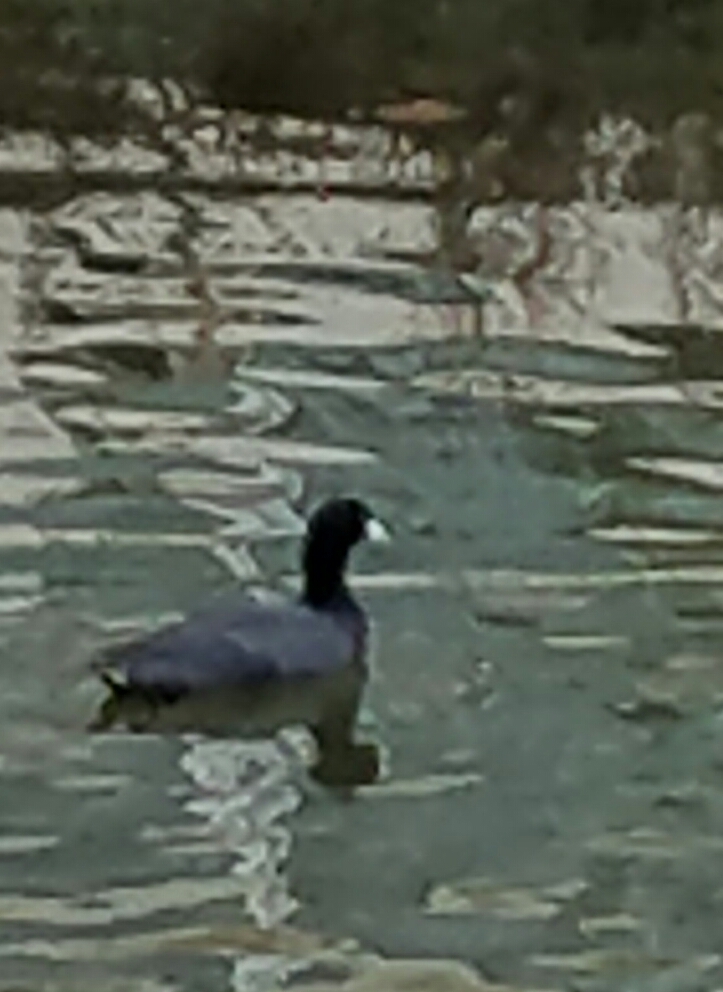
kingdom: Animalia
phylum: Chordata
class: Aves
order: Gruiformes
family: Rallidae
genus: Fulica
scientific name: Fulica americana
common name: American coot
